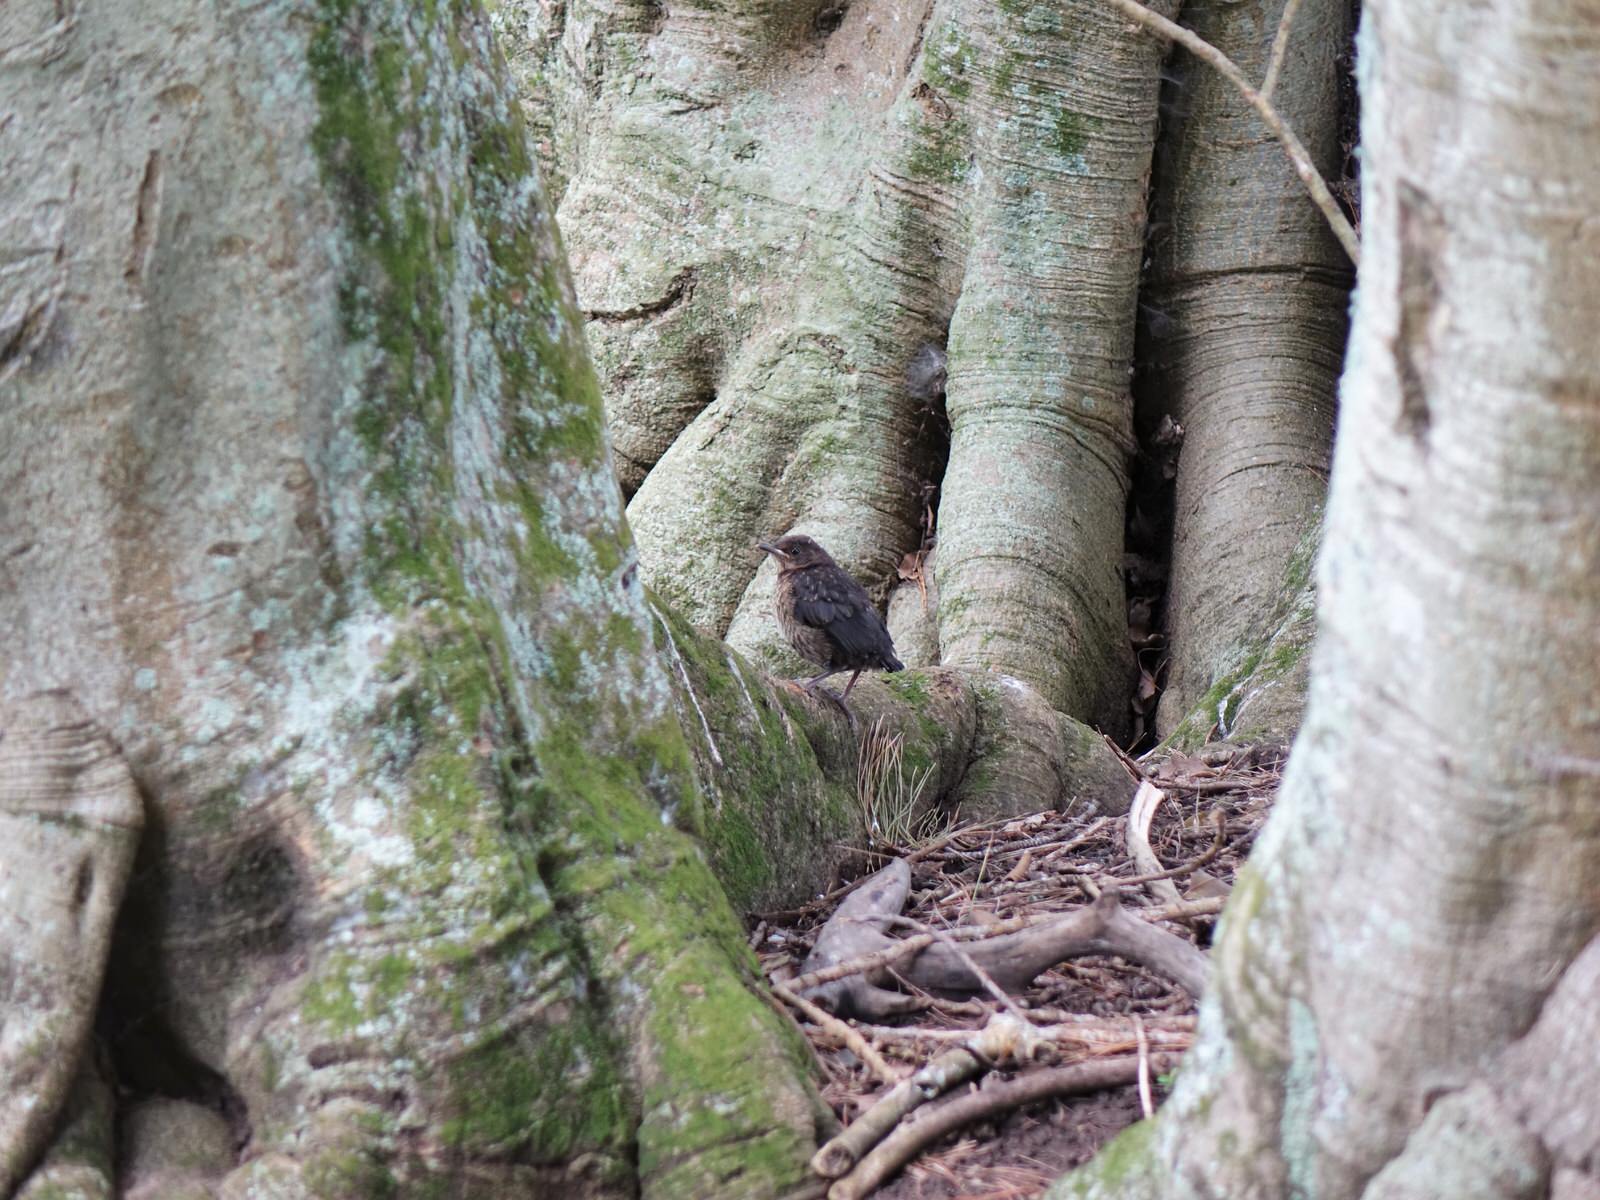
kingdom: Animalia
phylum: Chordata
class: Aves
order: Passeriformes
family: Turdidae
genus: Turdus
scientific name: Turdus merula
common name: Common blackbird
